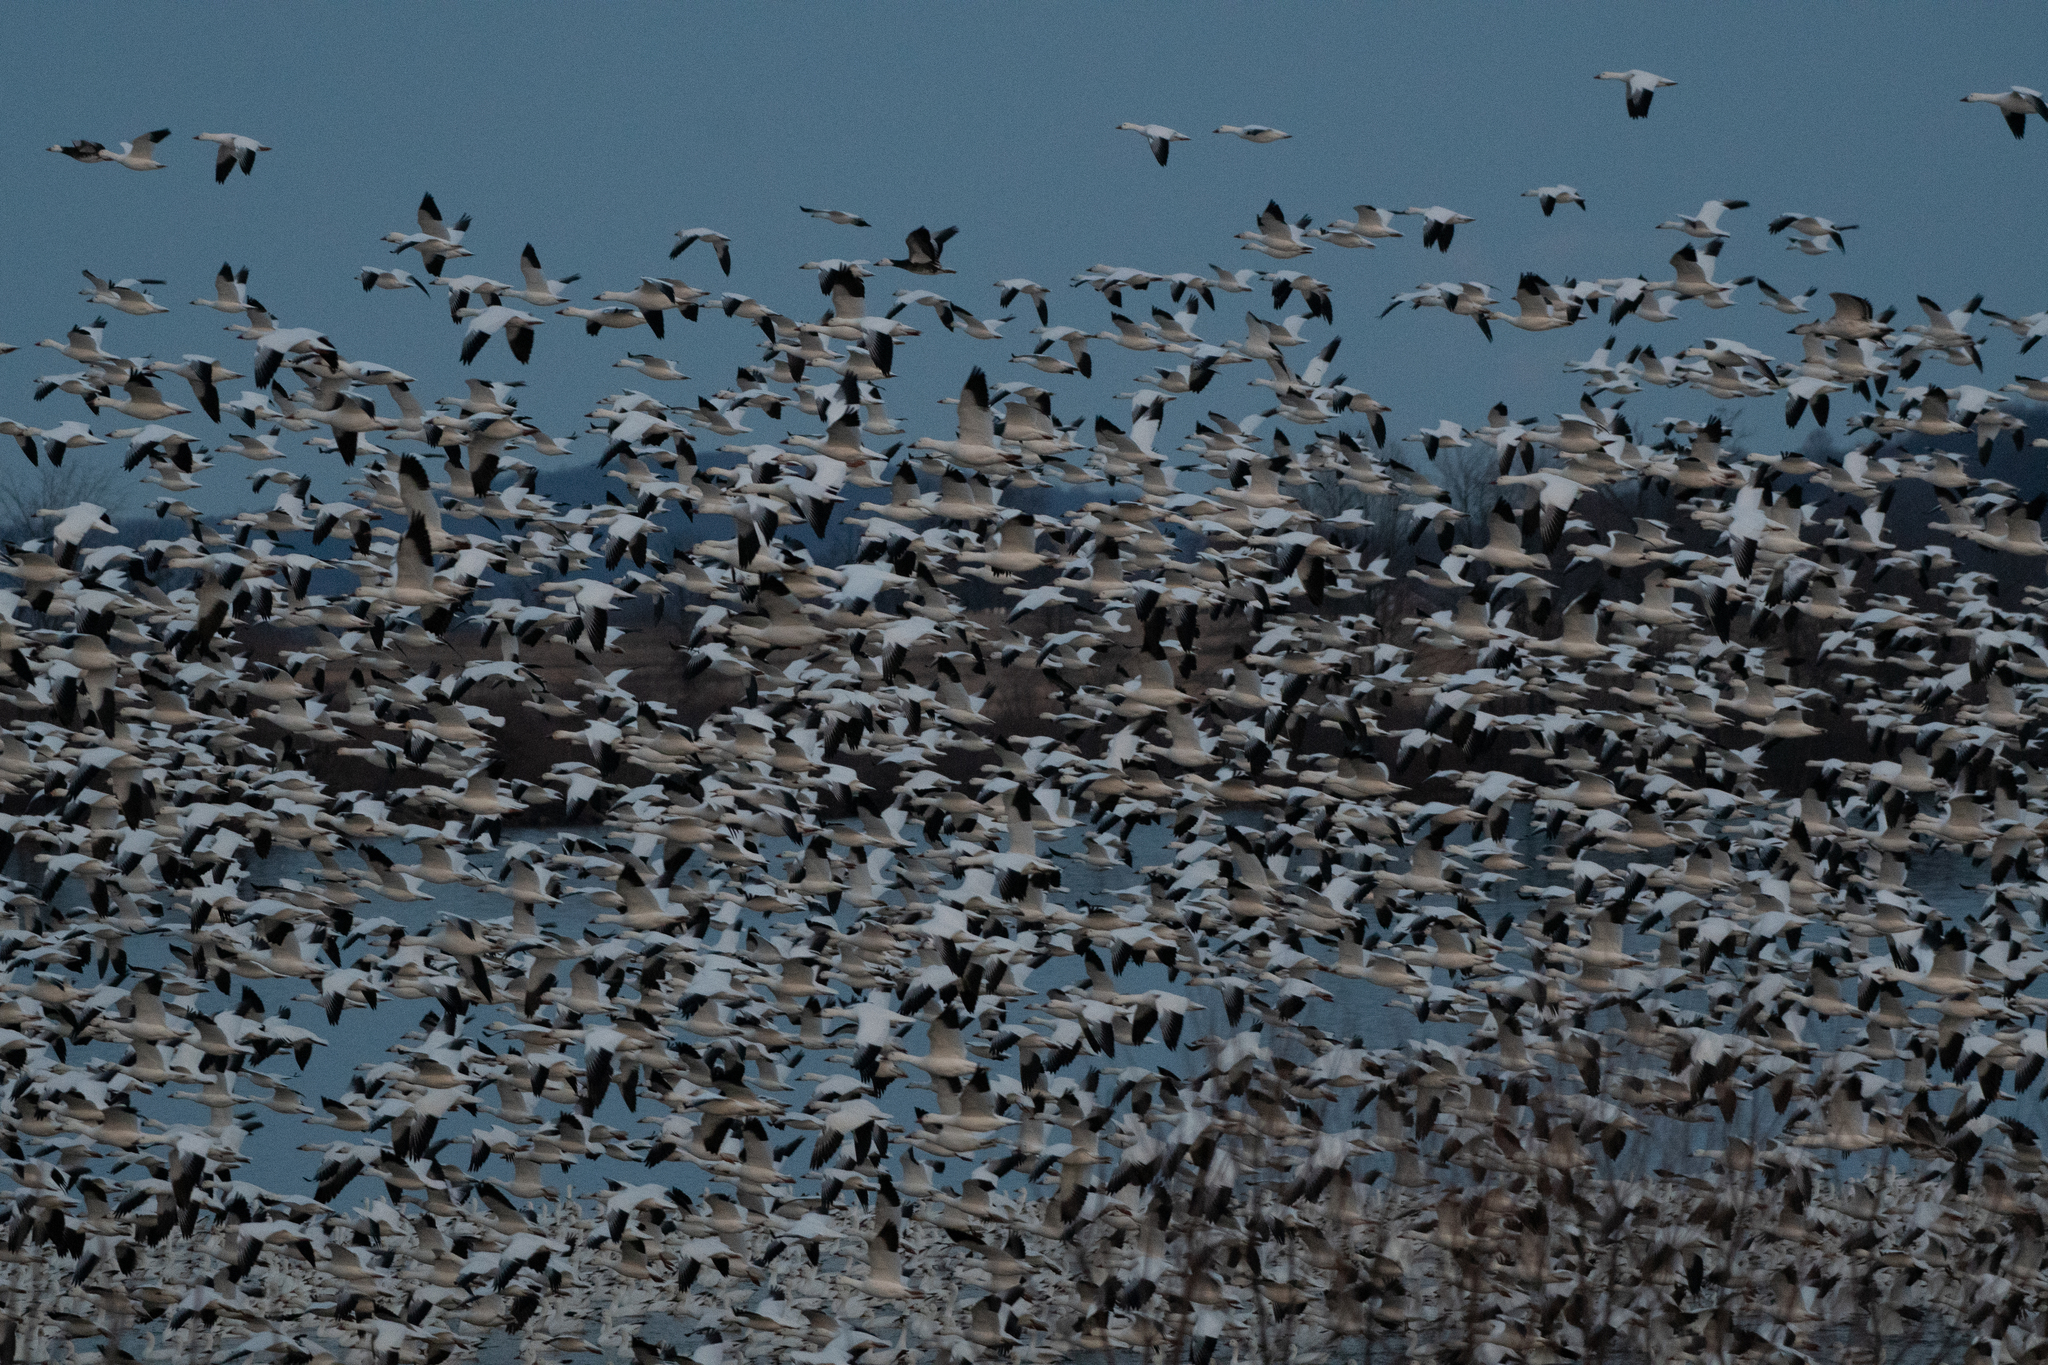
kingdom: Animalia
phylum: Chordata
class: Aves
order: Anseriformes
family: Anatidae
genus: Anser
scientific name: Anser caerulescens
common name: Snow goose
